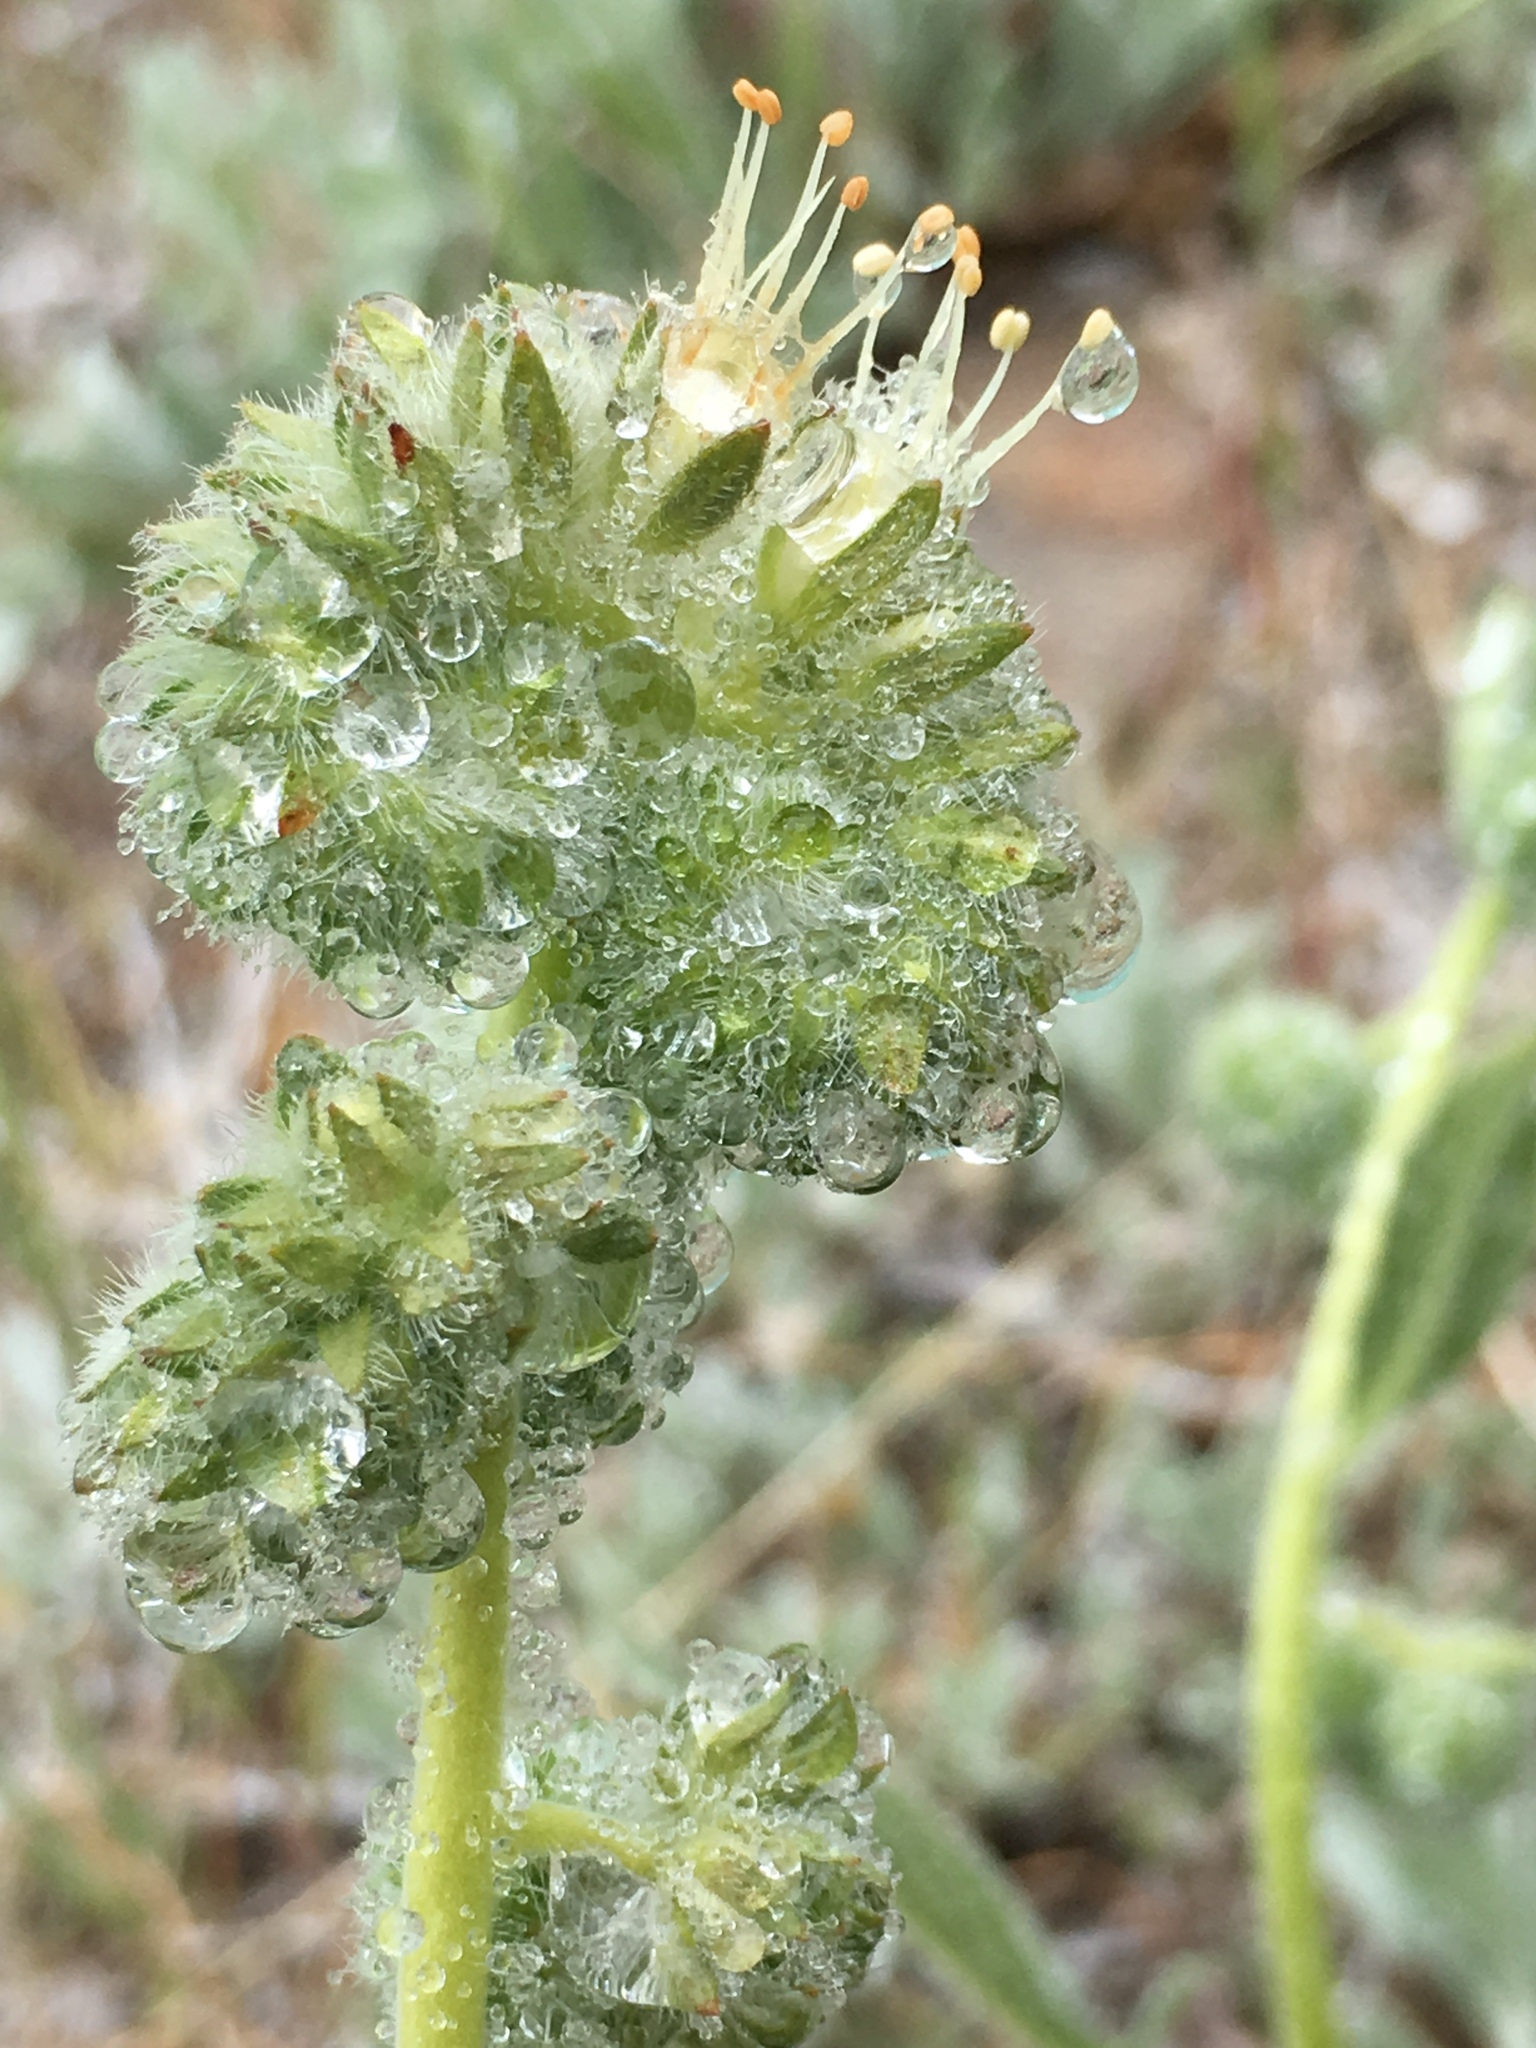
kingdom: Plantae
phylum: Tracheophyta
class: Magnoliopsida
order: Boraginales
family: Hydrophyllaceae
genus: Phacelia
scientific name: Phacelia imbricata
